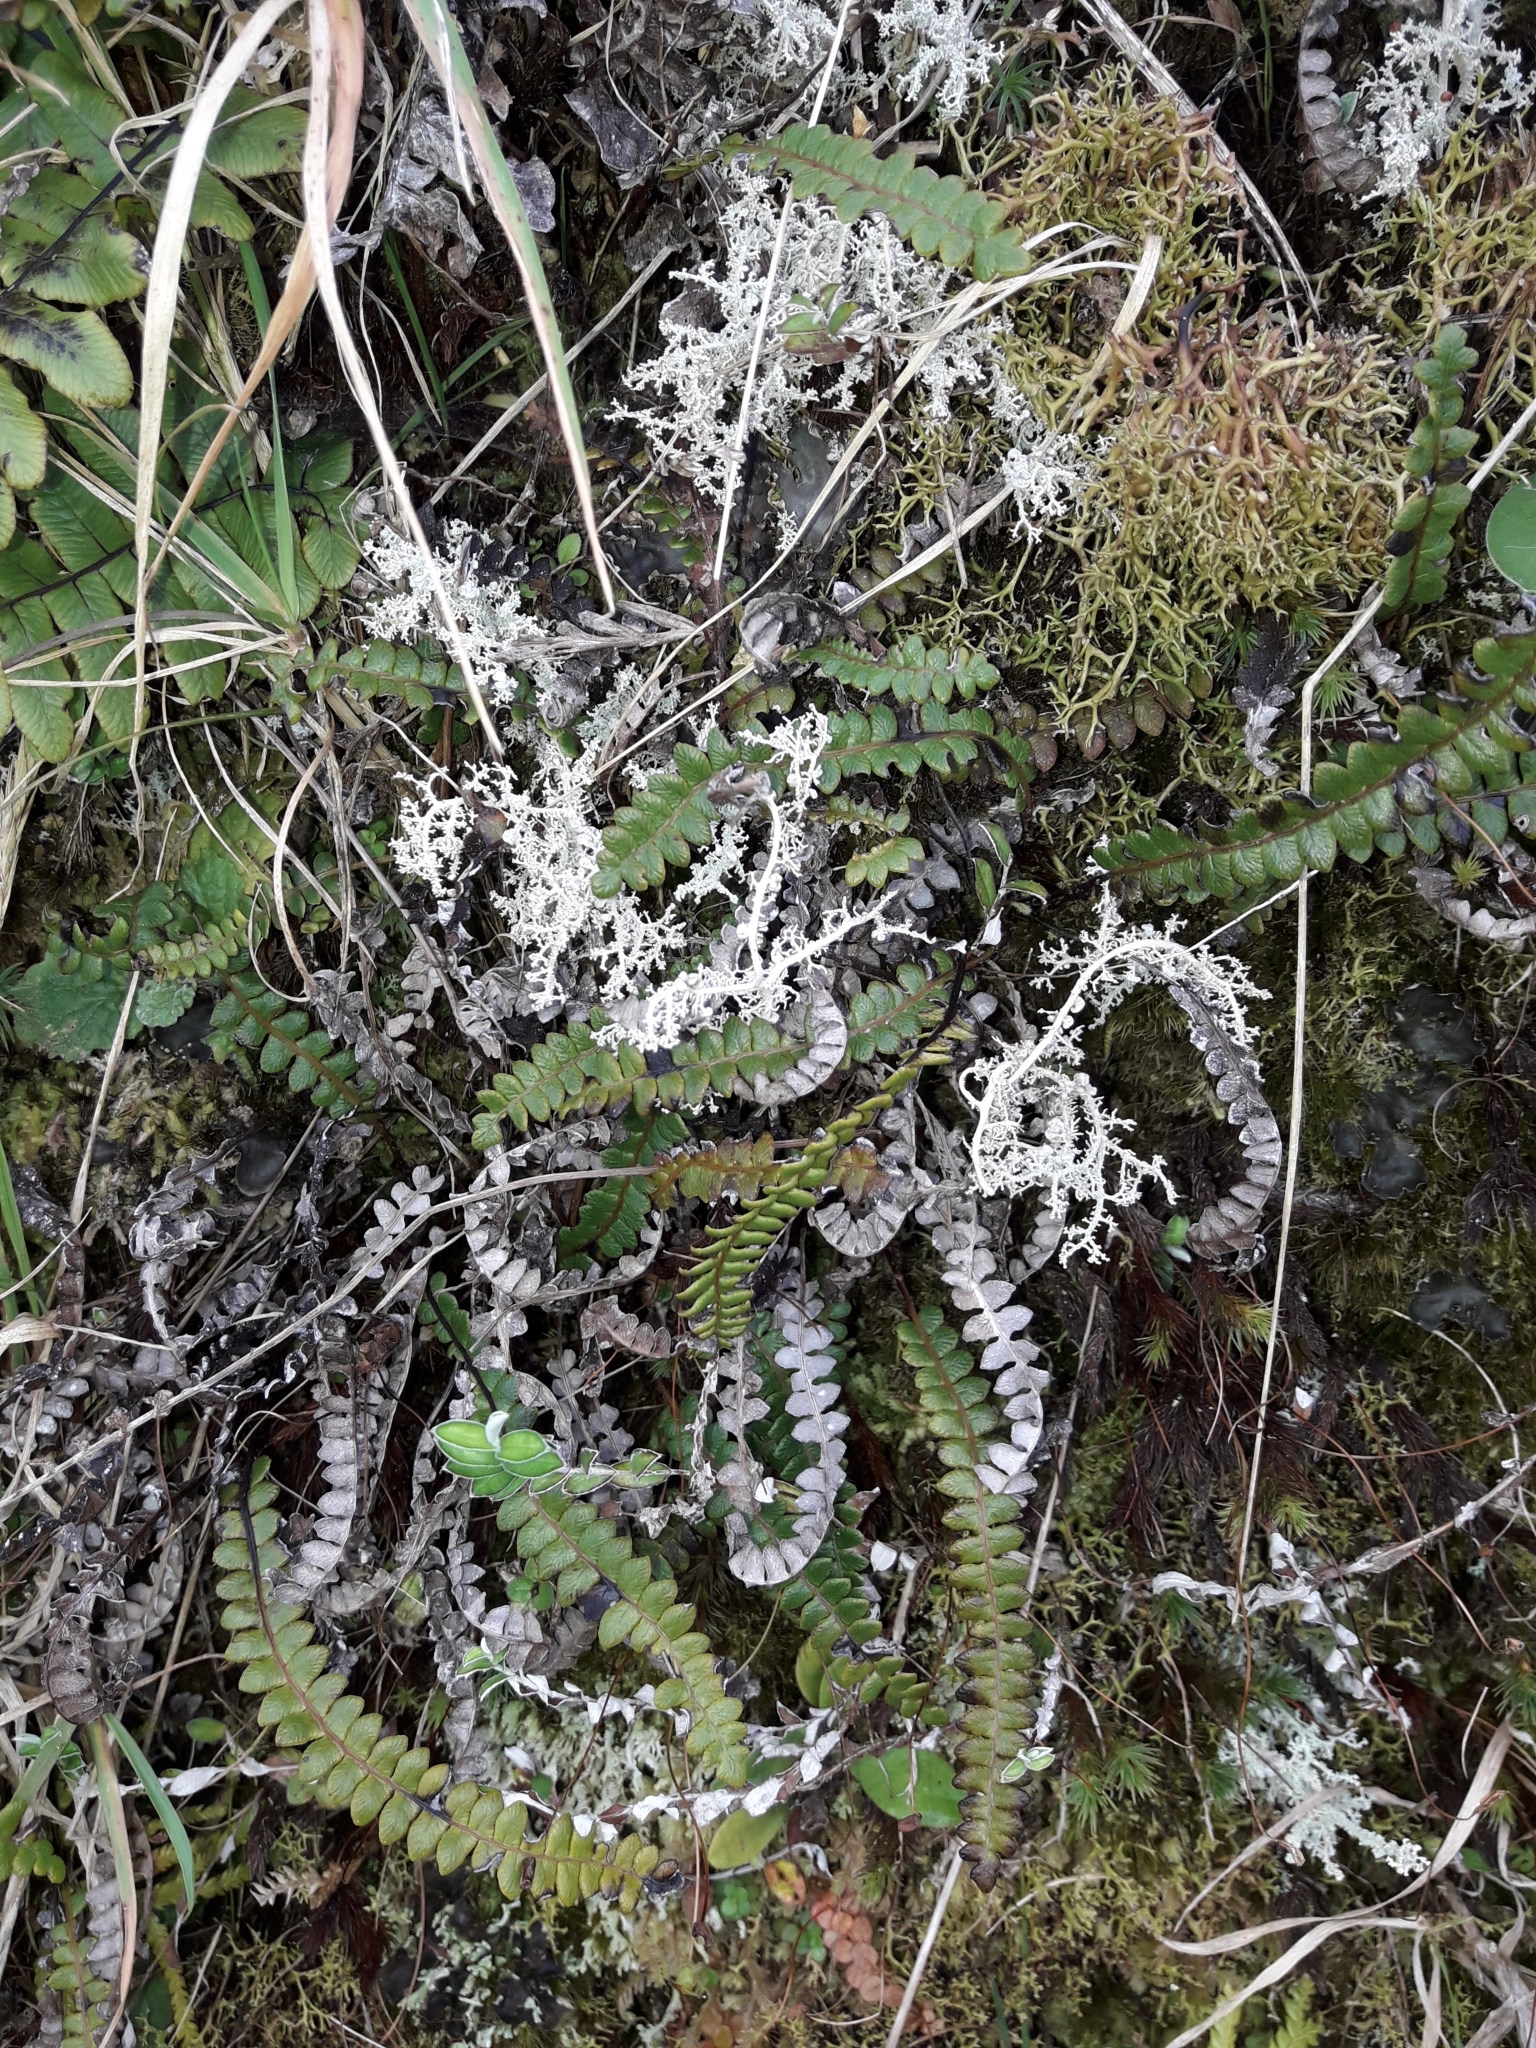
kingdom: Plantae
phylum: Tracheophyta
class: Polypodiopsida
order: Polypodiales
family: Blechnaceae
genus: Austroblechnum
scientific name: Austroblechnum penna-marina
